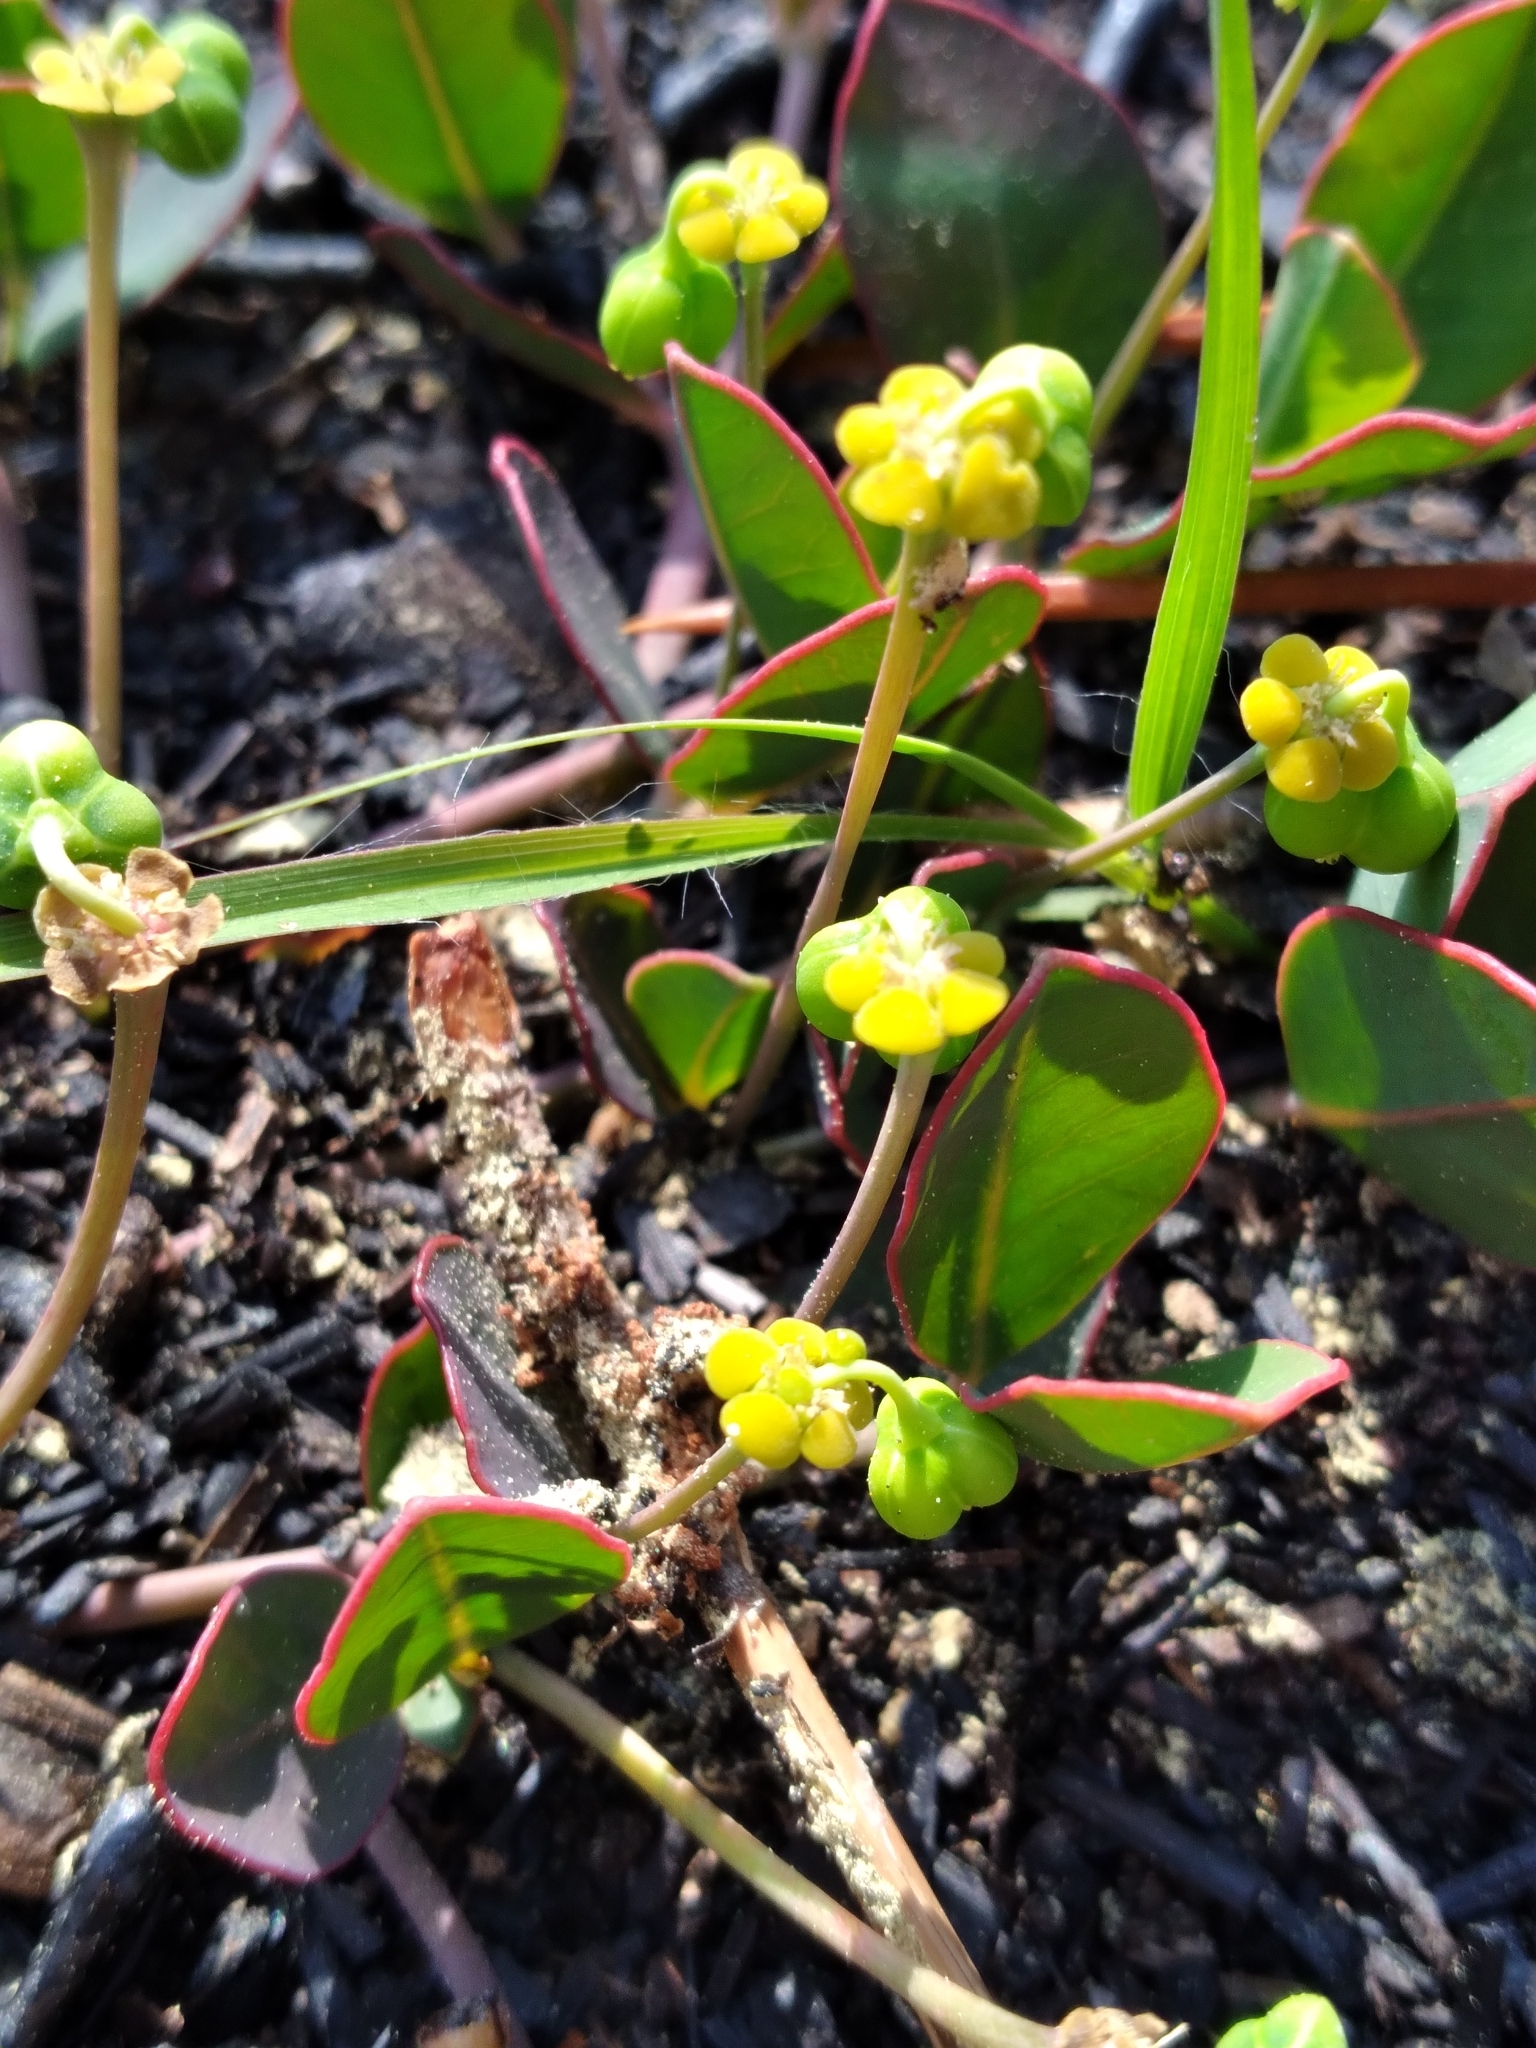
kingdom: Plantae
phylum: Tracheophyta
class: Magnoliopsida
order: Malpighiales
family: Euphorbiaceae
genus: Euphorbia
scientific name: Euphorbia ipecacuanhae
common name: Carolina ipecac
